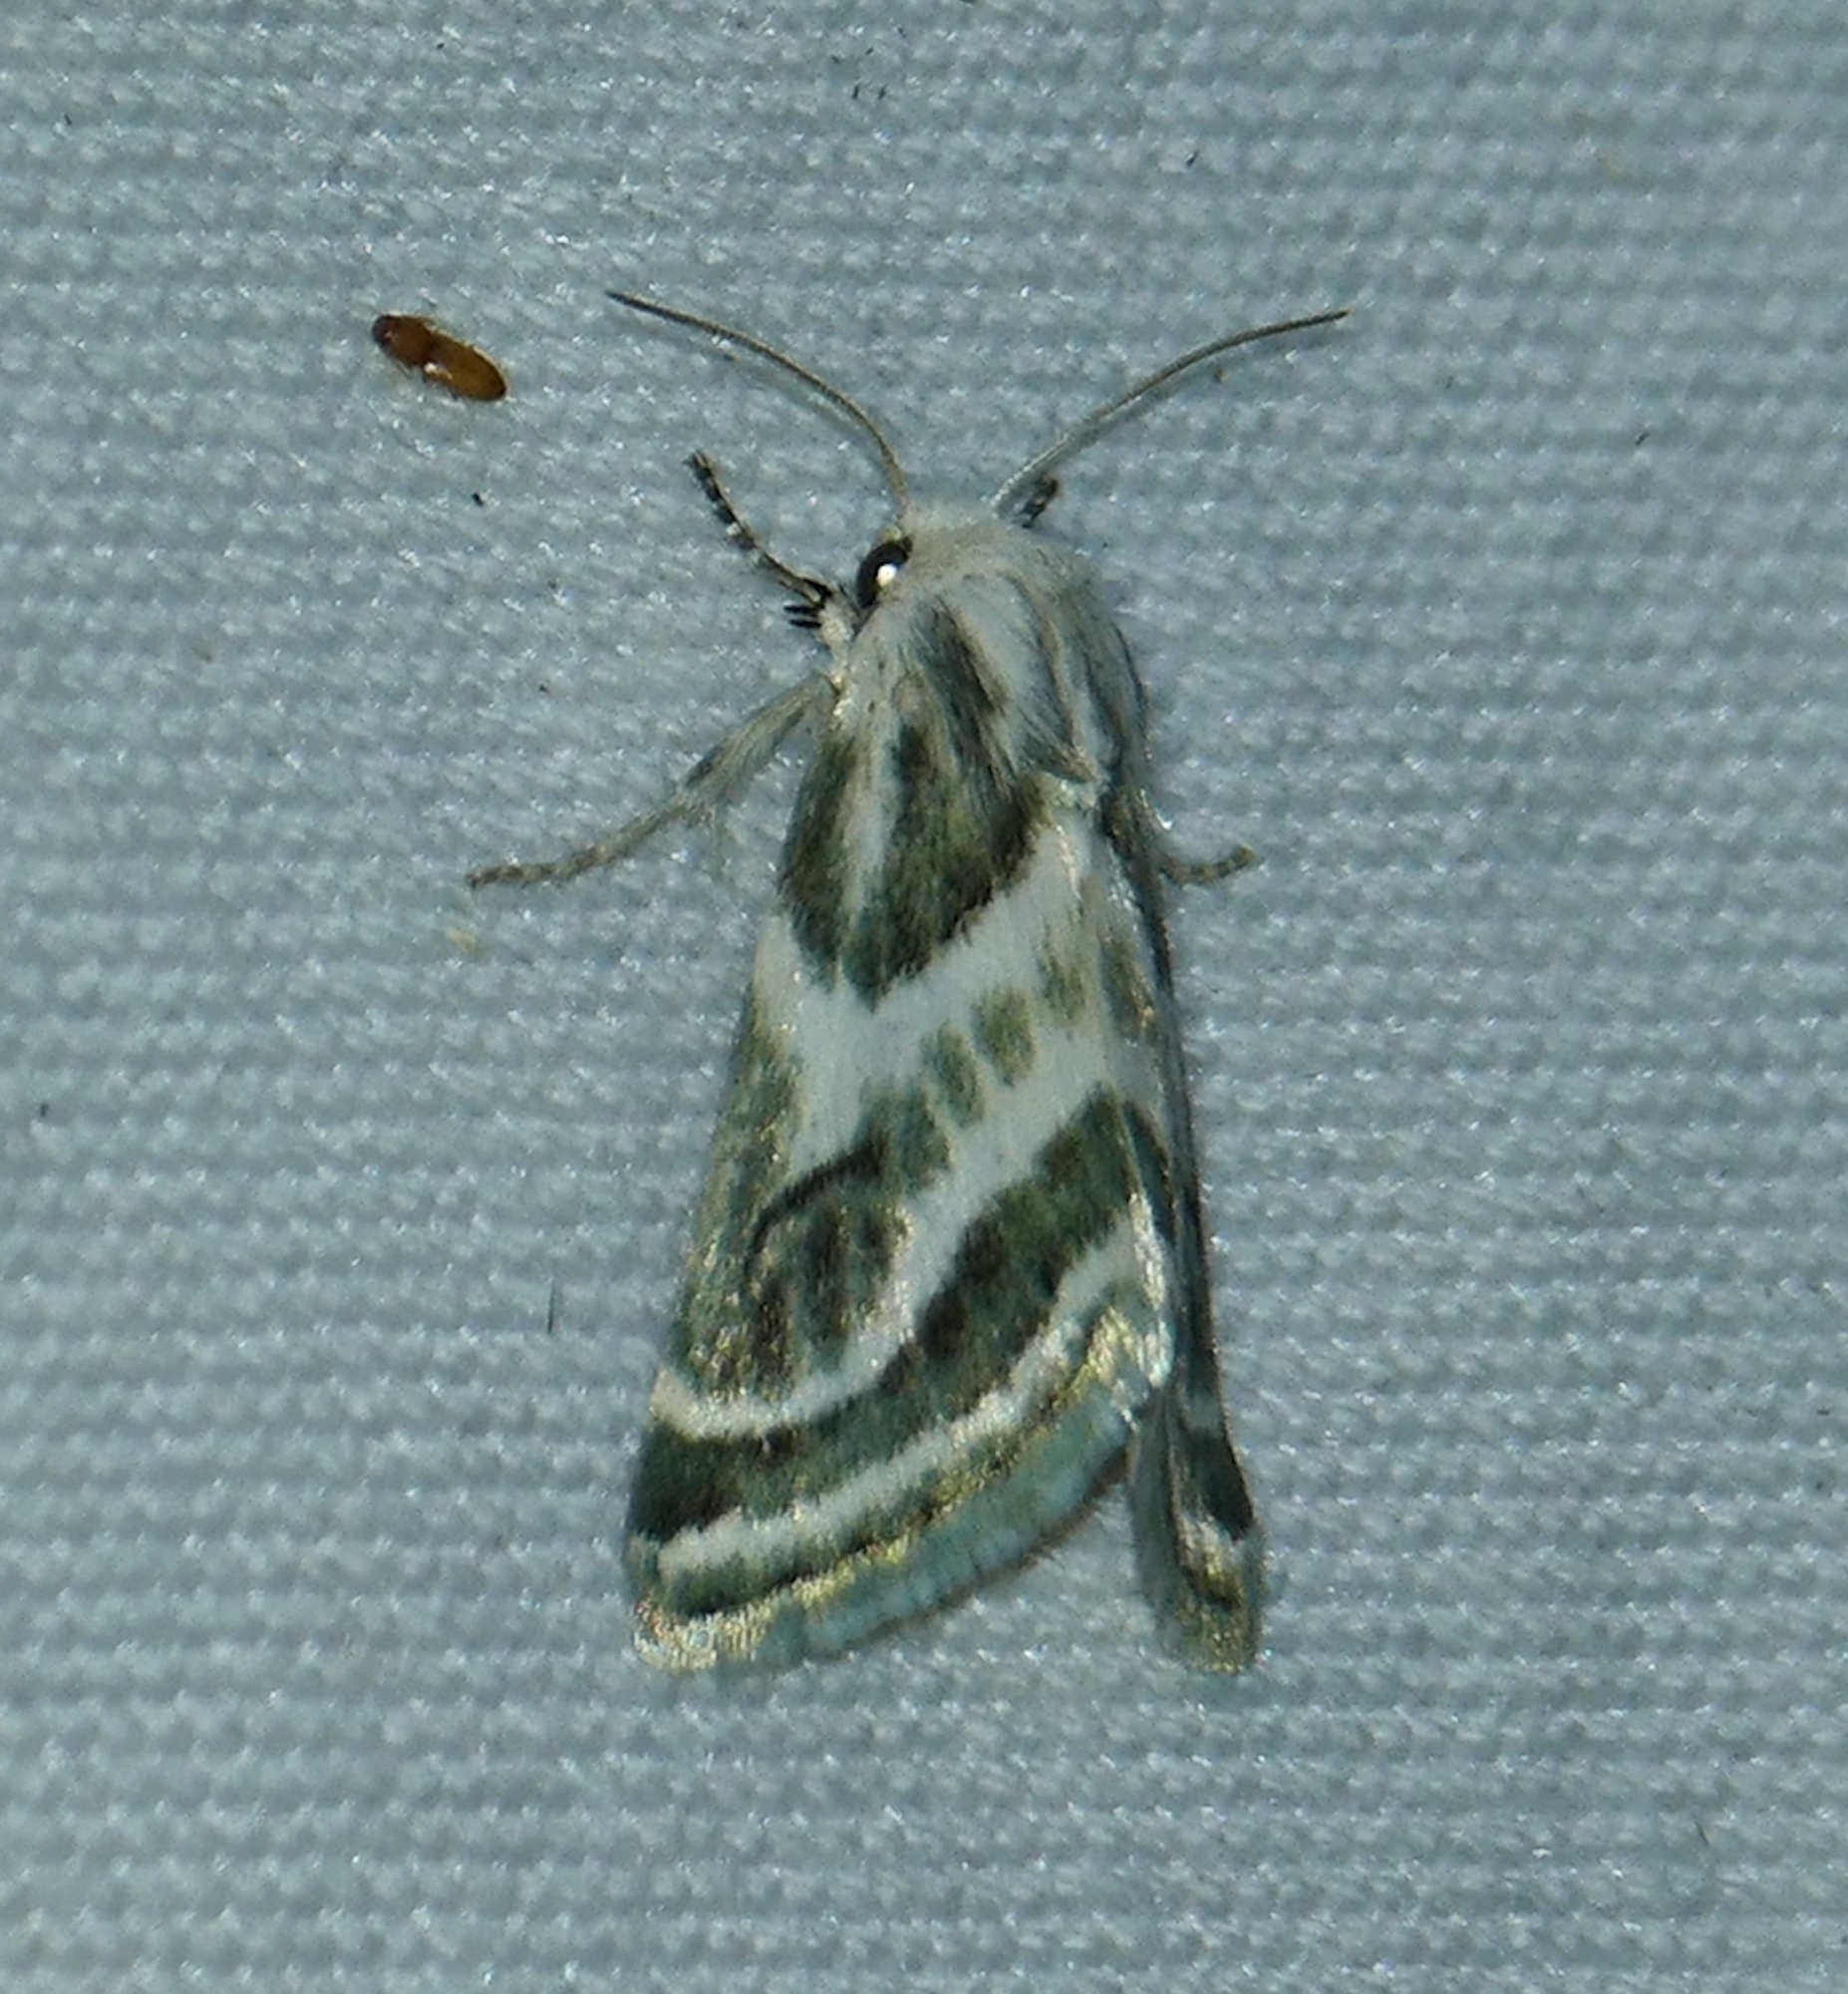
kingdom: Animalia
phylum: Arthropoda
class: Insecta
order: Lepidoptera
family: Noctuidae
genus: Schinia
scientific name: Schinia accessa
